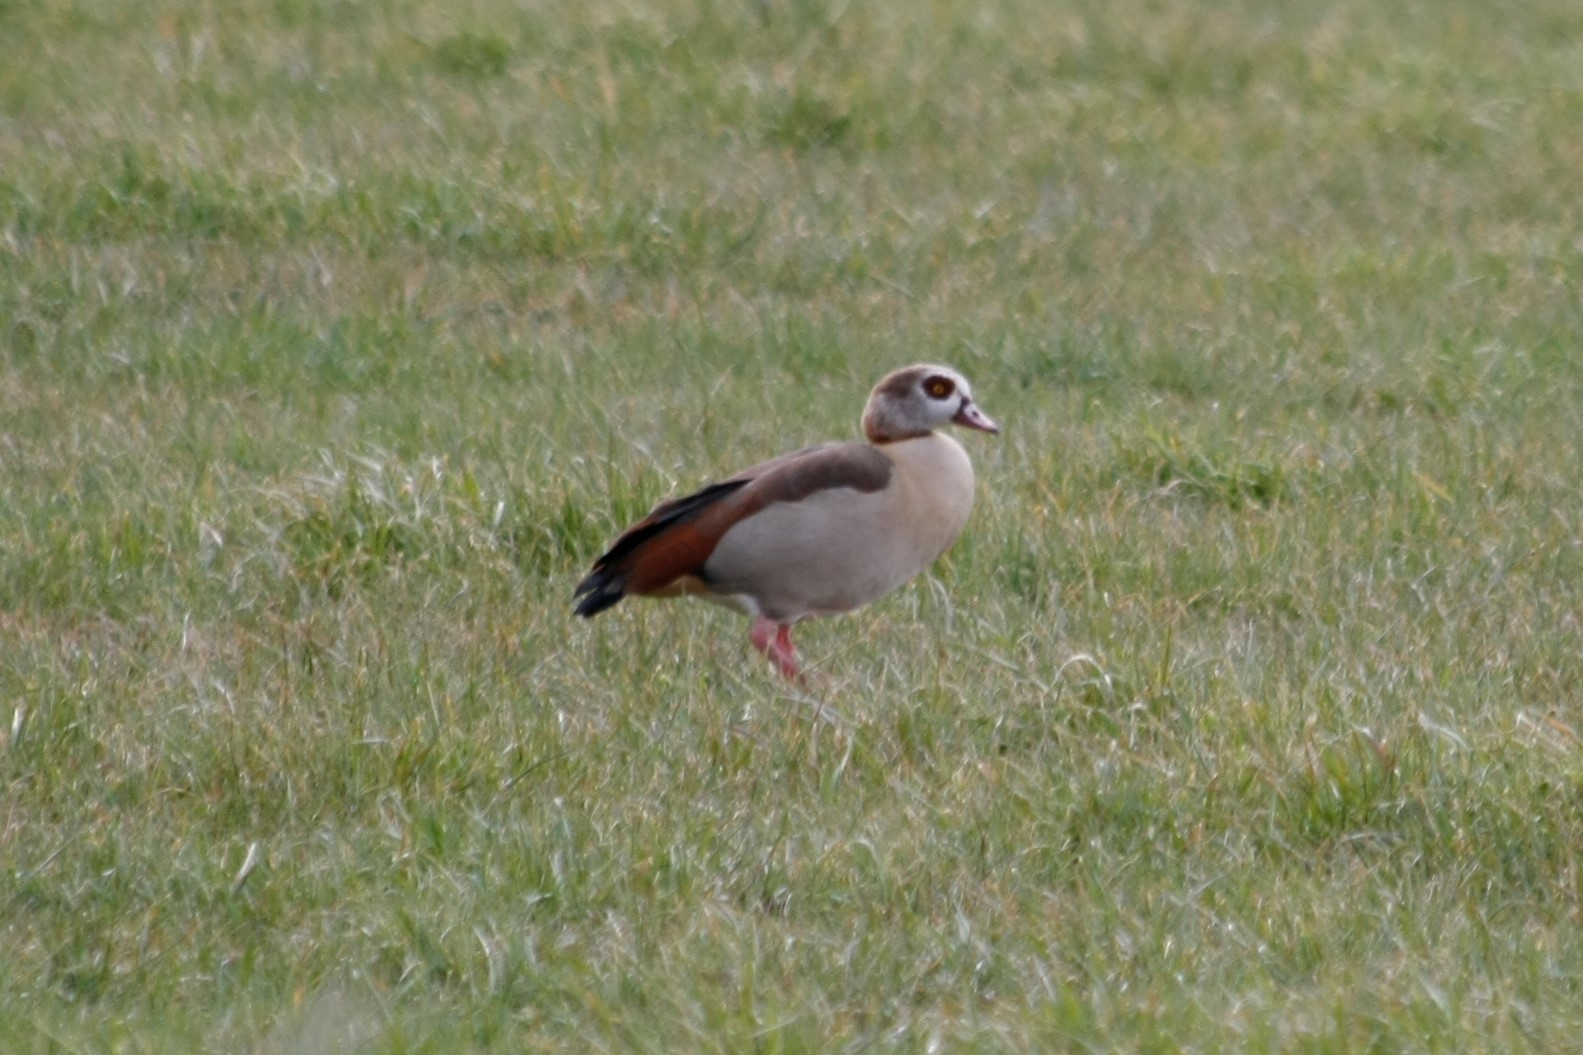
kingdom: Animalia
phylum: Chordata
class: Aves
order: Anseriformes
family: Anatidae
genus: Alopochen
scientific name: Alopochen aegyptiaca
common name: Egyptian goose
